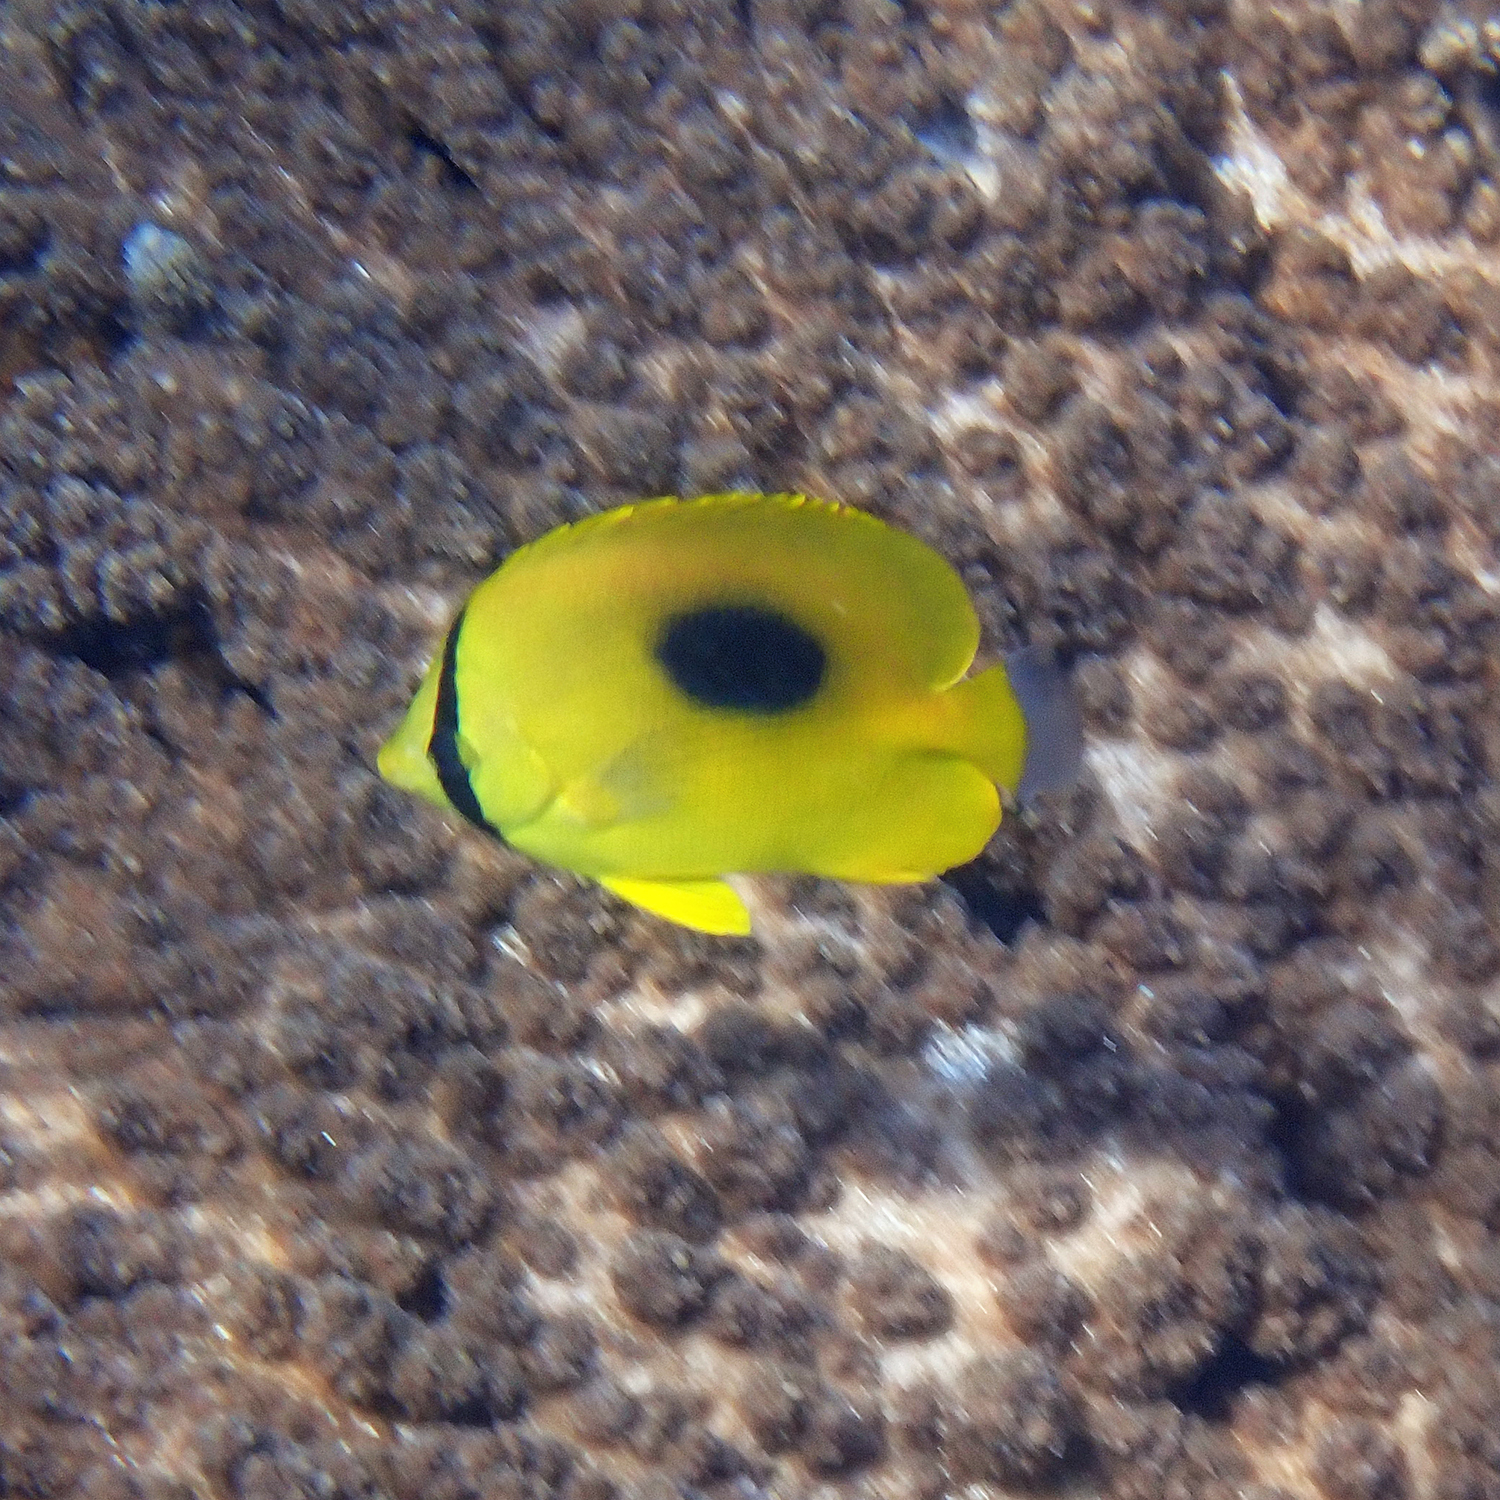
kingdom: Animalia
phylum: Chordata
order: Perciformes
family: Chaetodontidae
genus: Chaetodon
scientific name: Chaetodon speculum
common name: Mirror butterflyfish
